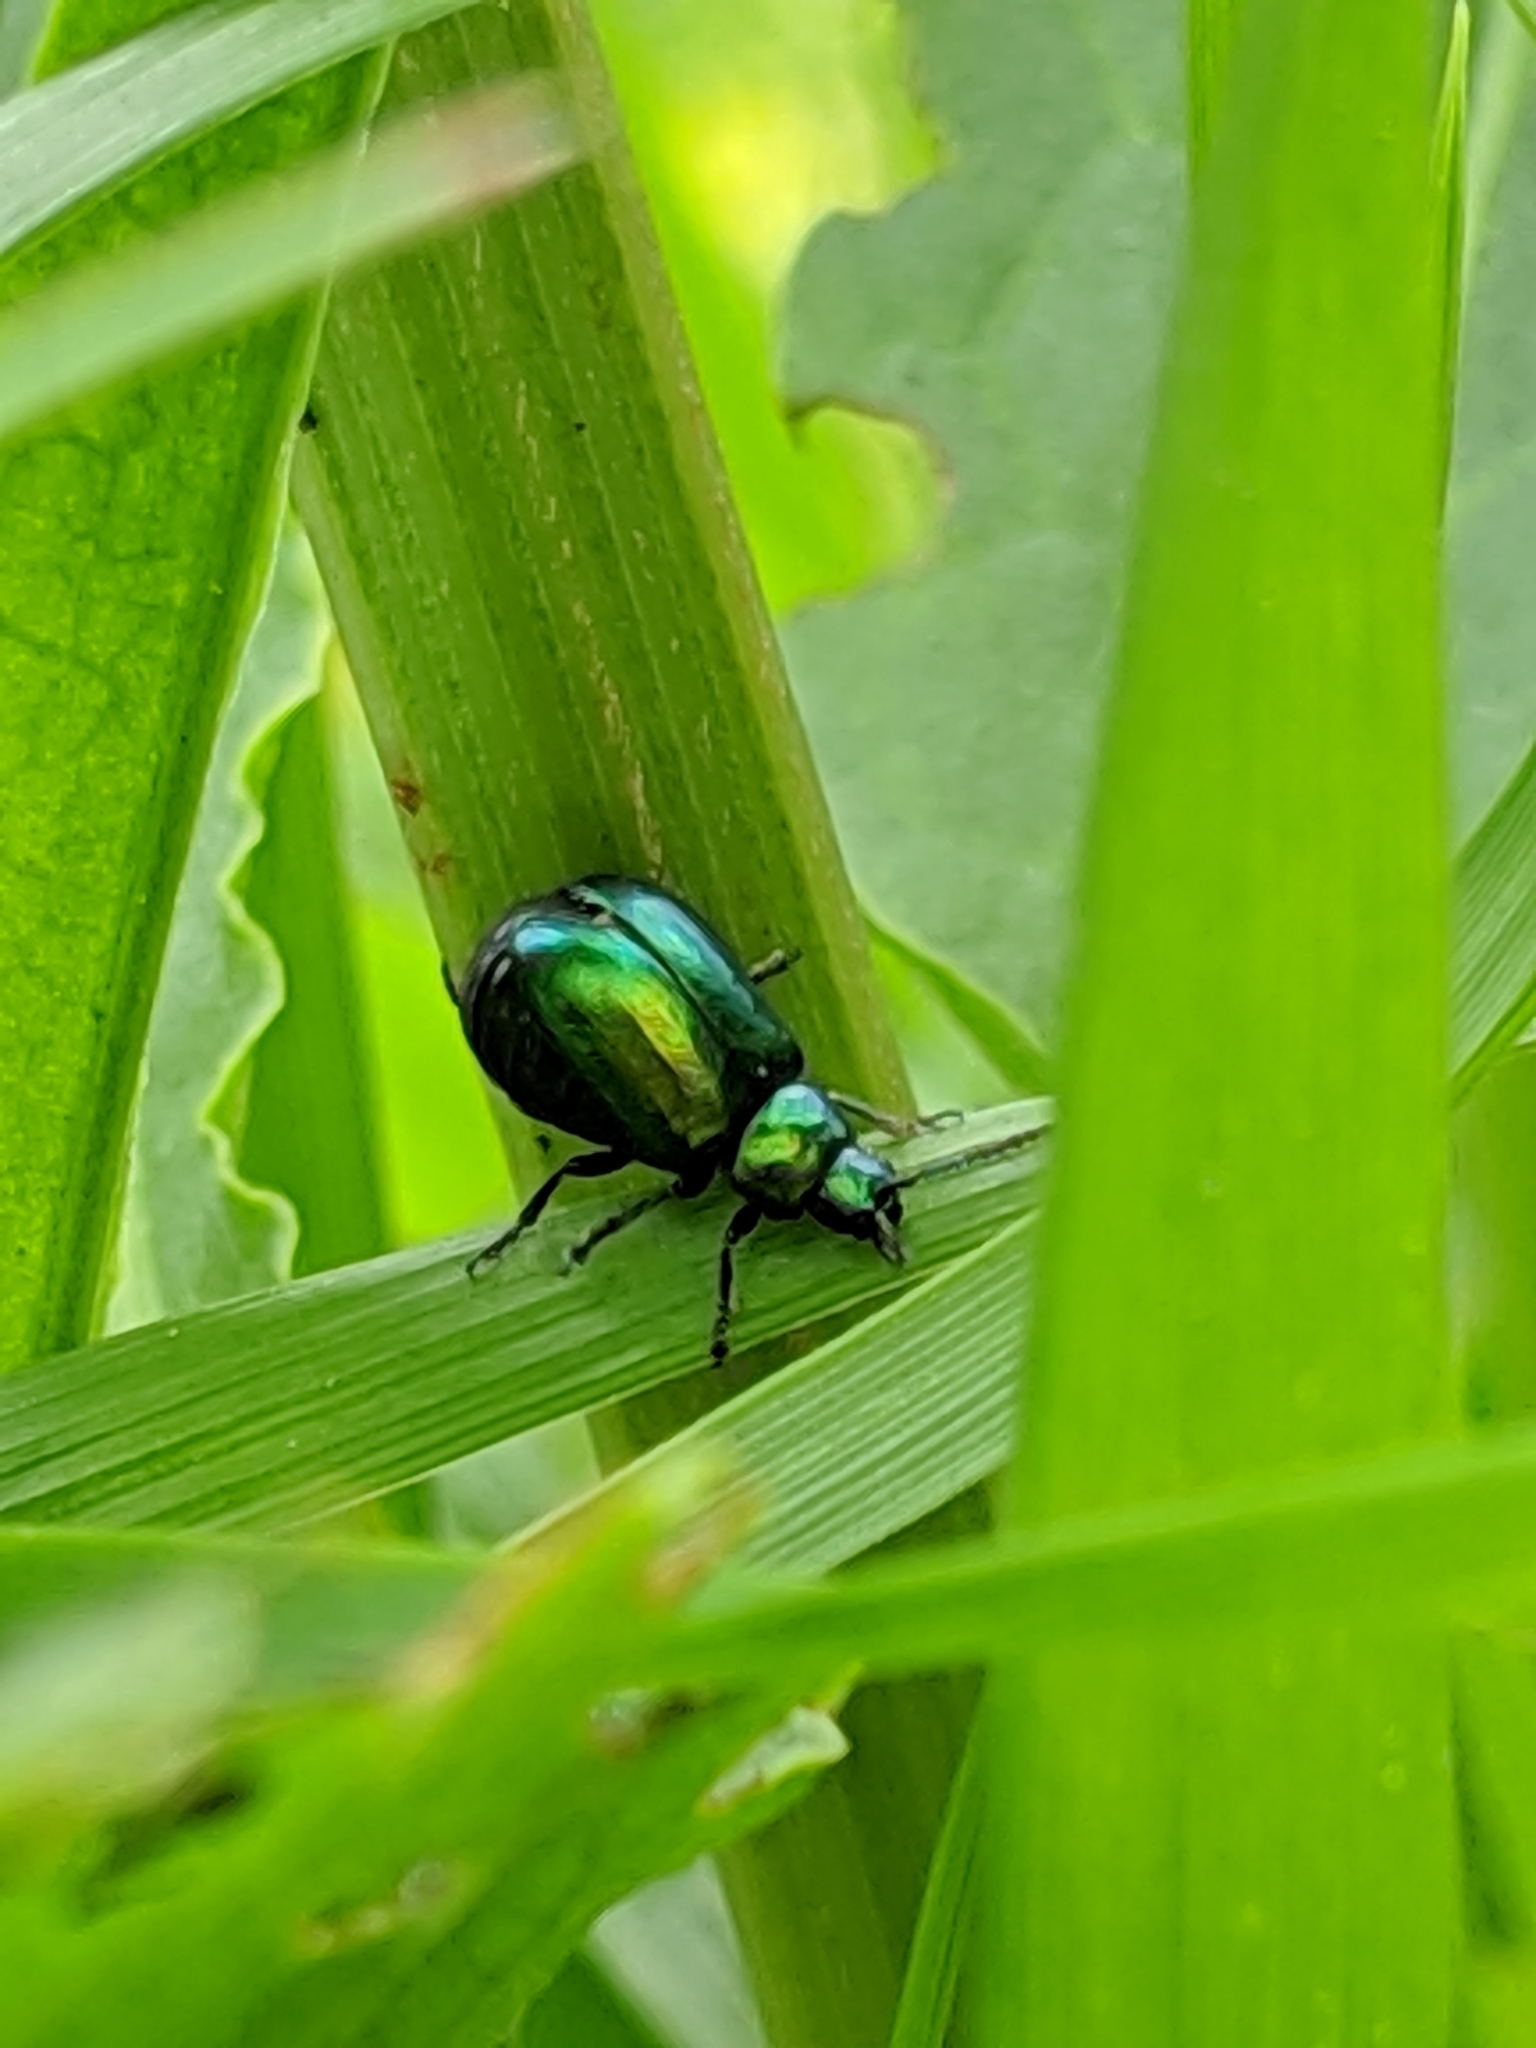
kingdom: Animalia
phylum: Arthropoda
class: Insecta
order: Coleoptera
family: Chrysomelidae
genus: Gastrophysa
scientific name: Gastrophysa cyanea
